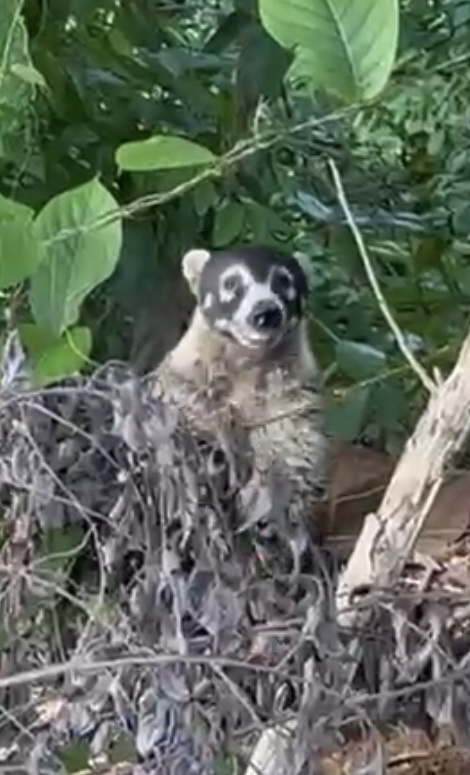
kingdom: Animalia
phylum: Chordata
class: Mammalia
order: Carnivora
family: Procyonidae
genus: Nasua
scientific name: Nasua narica
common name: White-nosed coati
